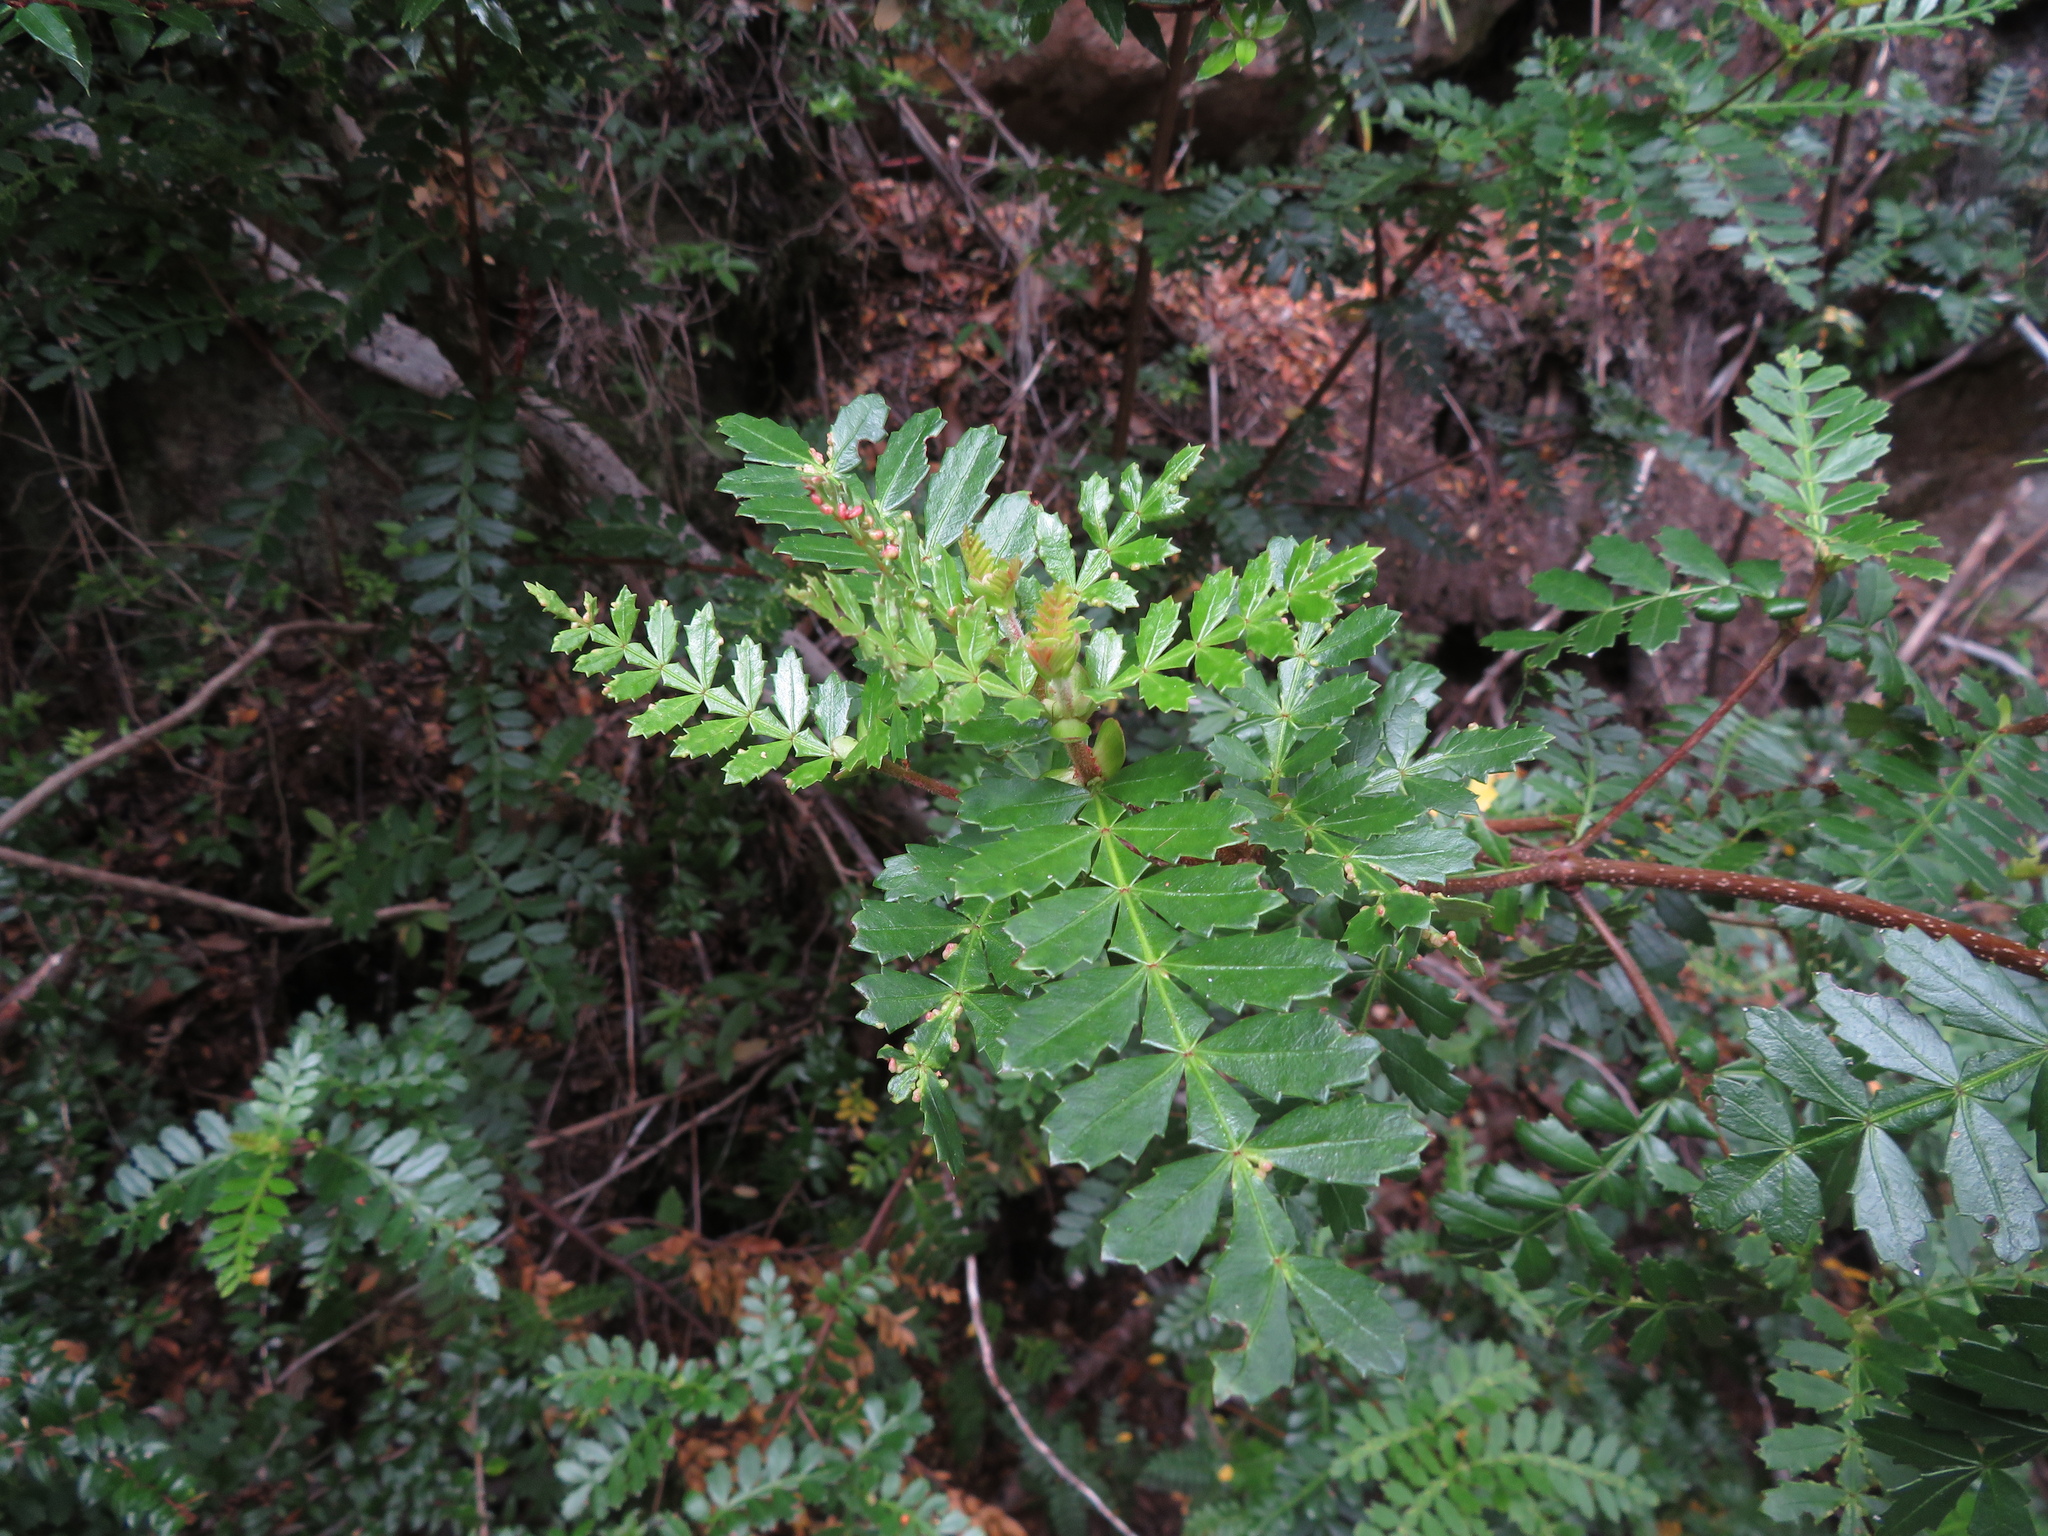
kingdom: Plantae
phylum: Tracheophyta
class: Magnoliopsida
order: Oxalidales
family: Cunoniaceae
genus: Weinmannia
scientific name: Weinmannia trichosperma
